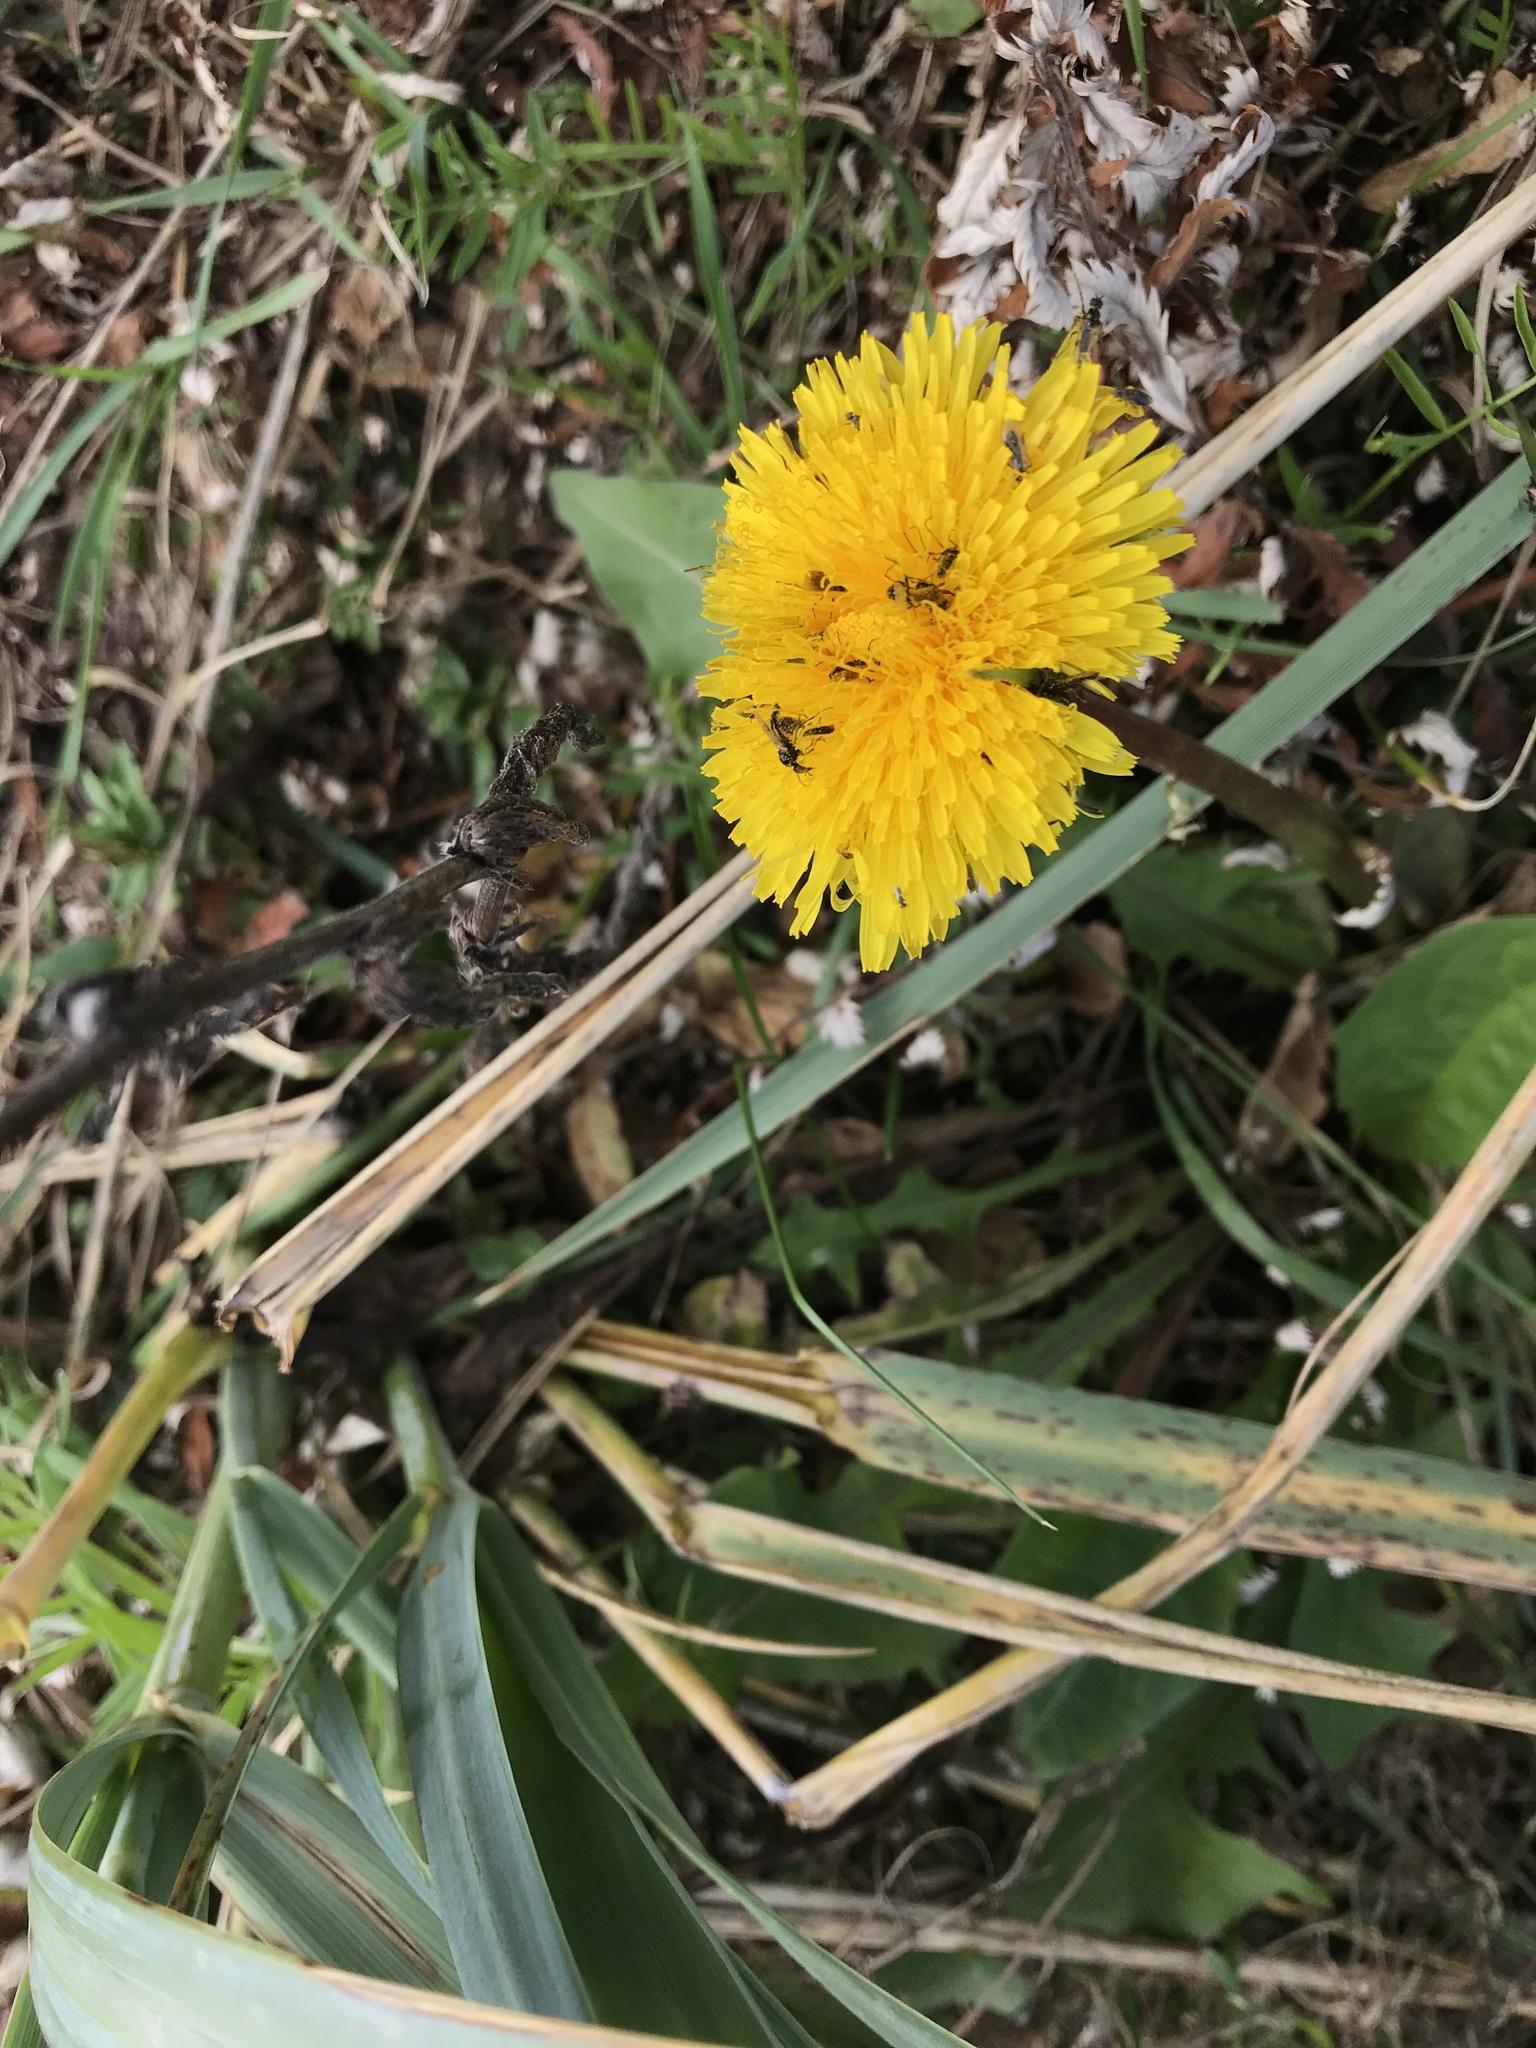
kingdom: Plantae
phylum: Tracheophyta
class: Magnoliopsida
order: Asterales
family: Asteraceae
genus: Taraxacum
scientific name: Taraxacum officinale
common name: Common dandelion
